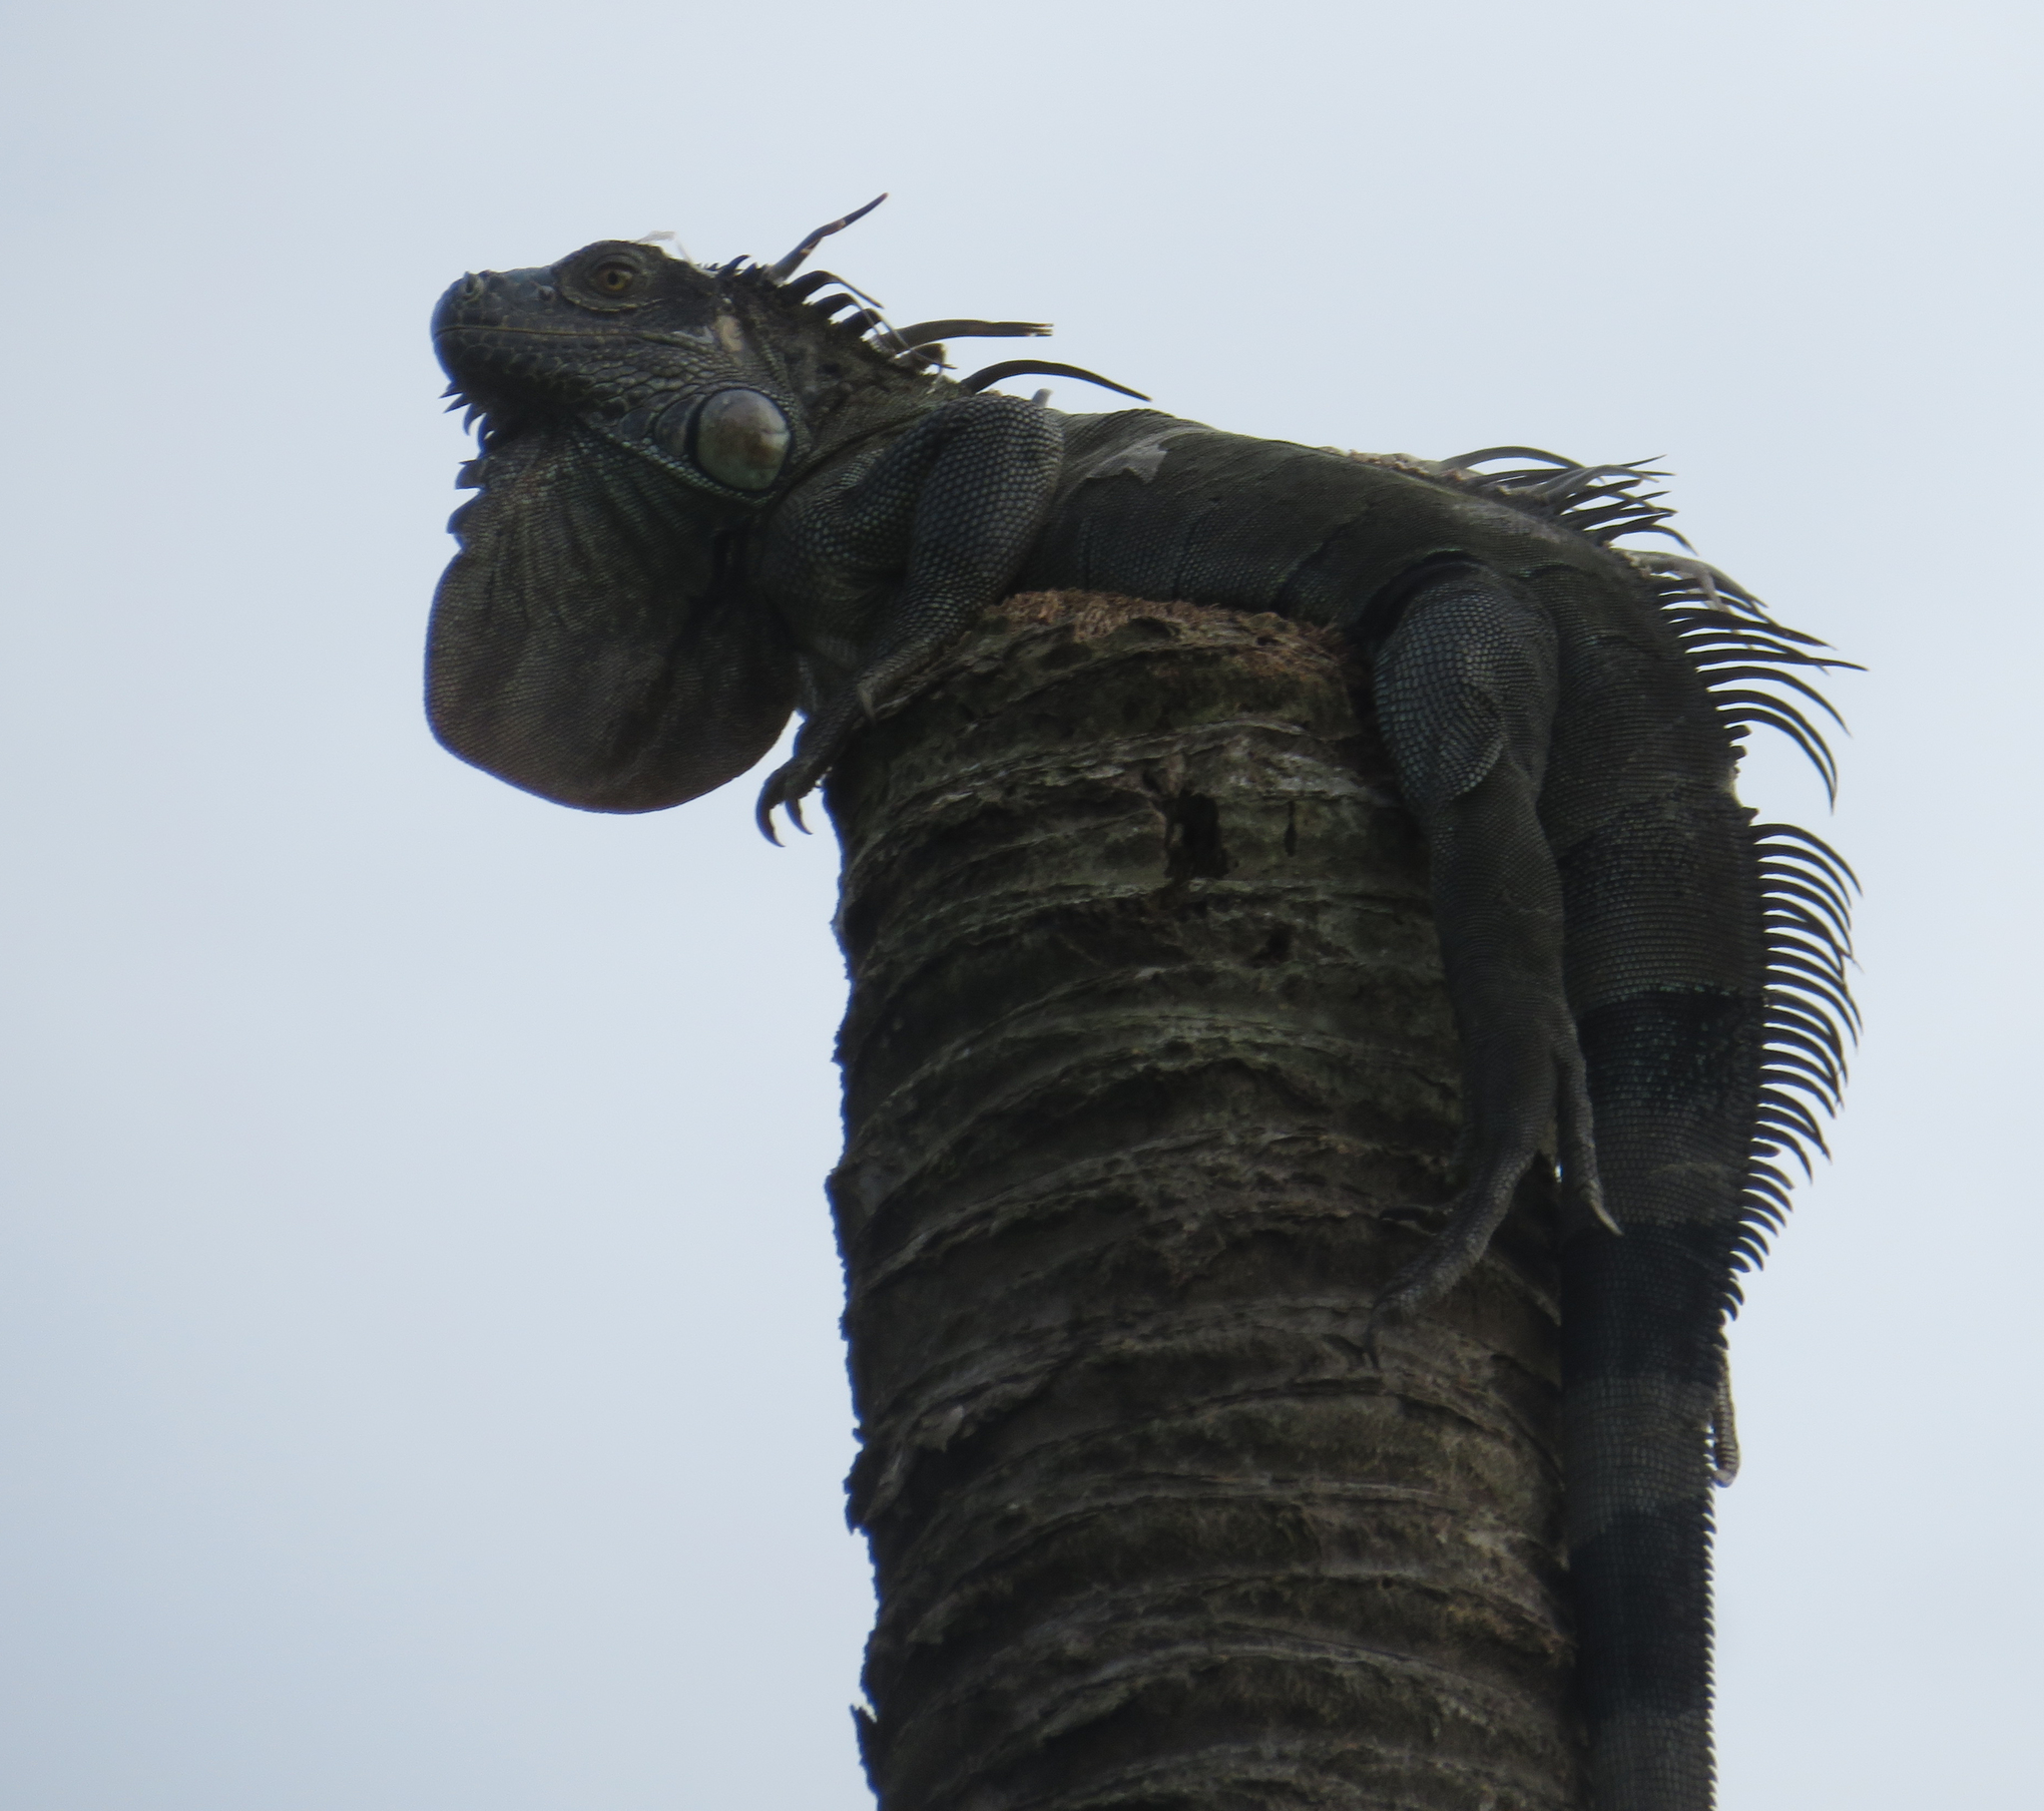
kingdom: Animalia
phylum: Chordata
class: Squamata
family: Iguanidae
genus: Iguana
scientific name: Iguana iguana
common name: Green iguana
